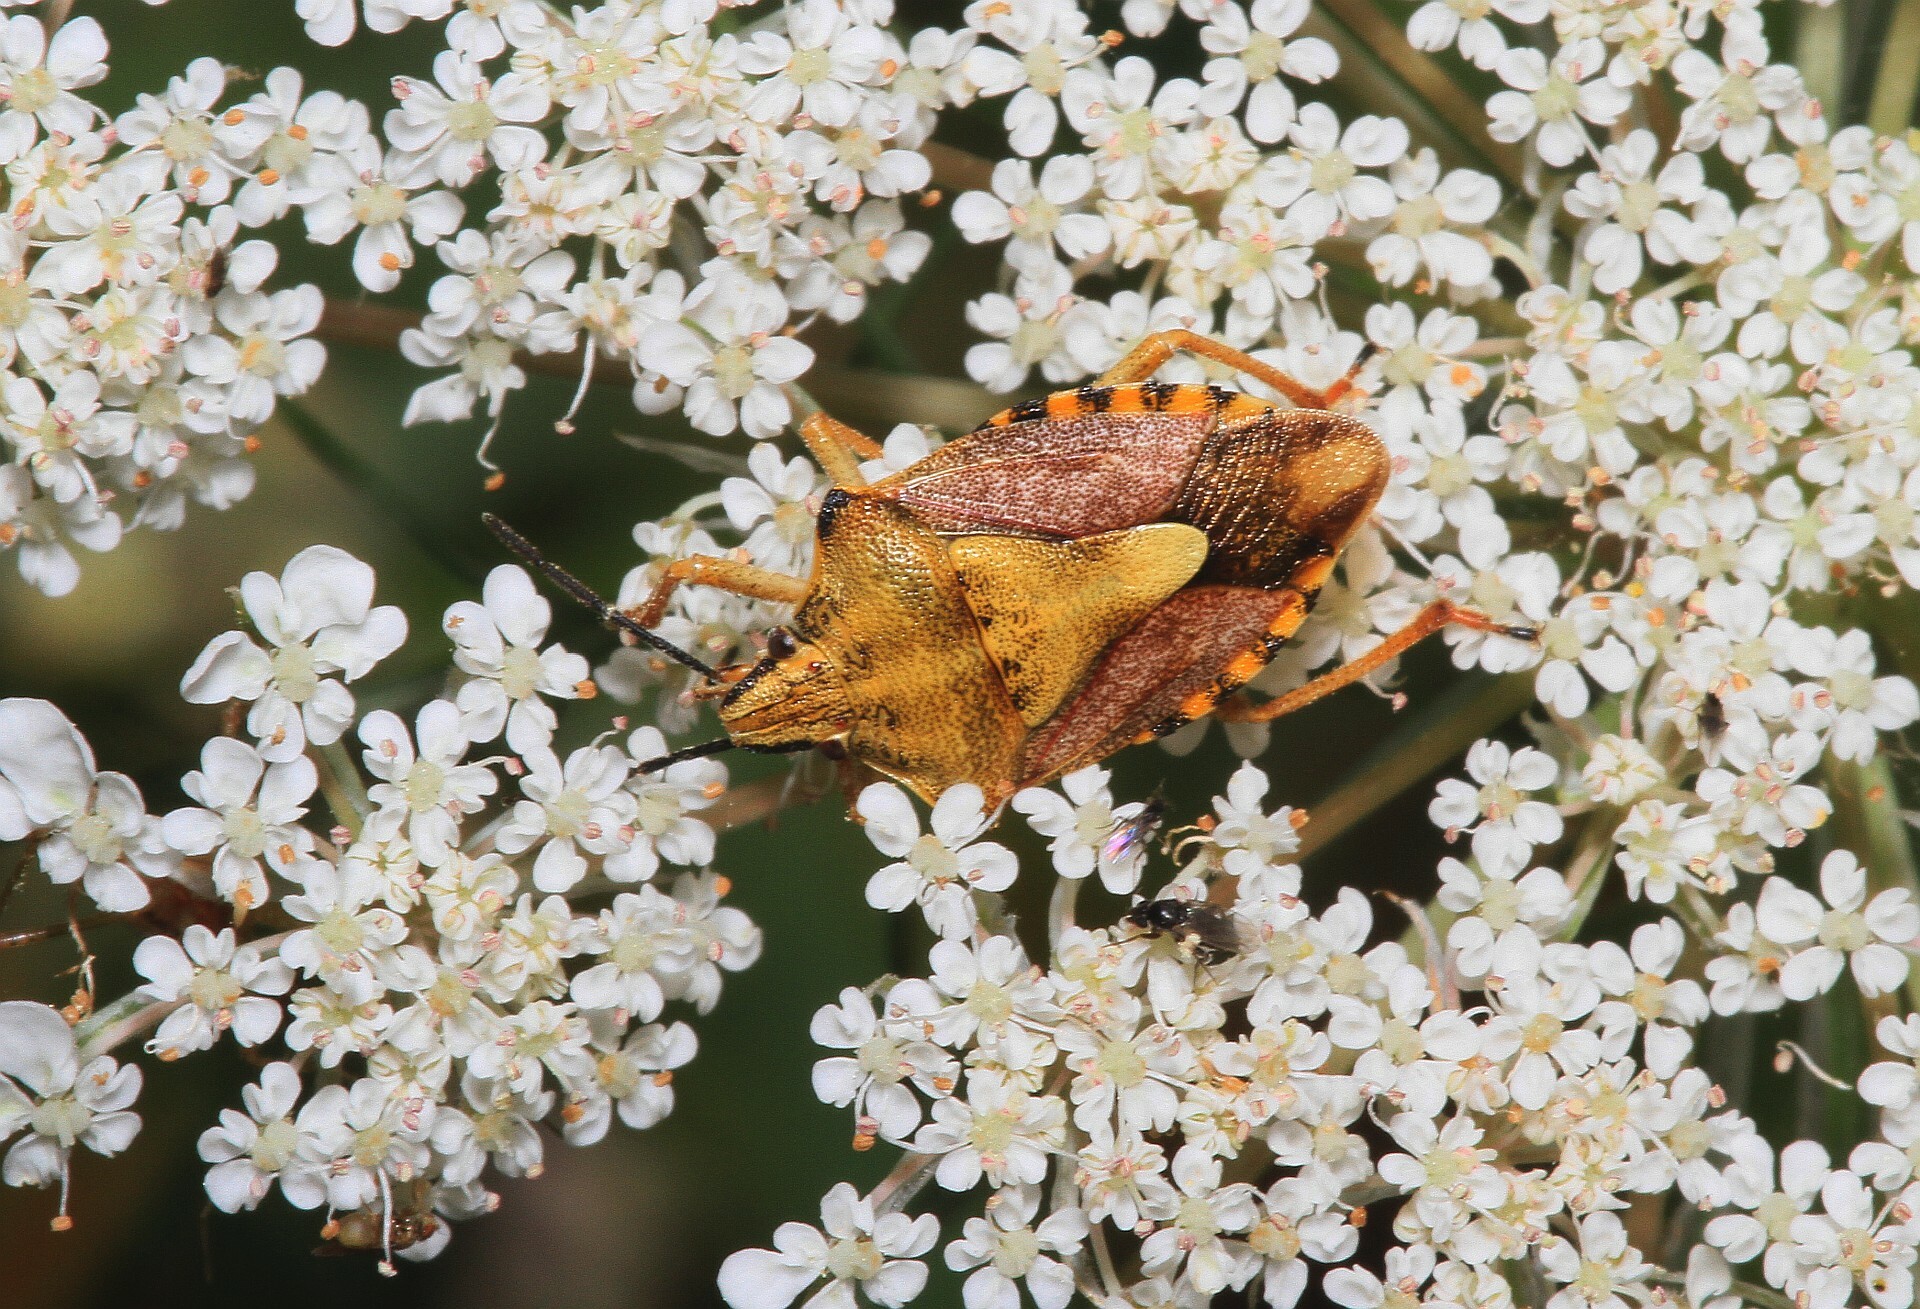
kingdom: Animalia
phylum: Arthropoda
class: Insecta
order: Hemiptera
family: Pentatomidae
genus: Carpocoris
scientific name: Carpocoris purpureipennis
